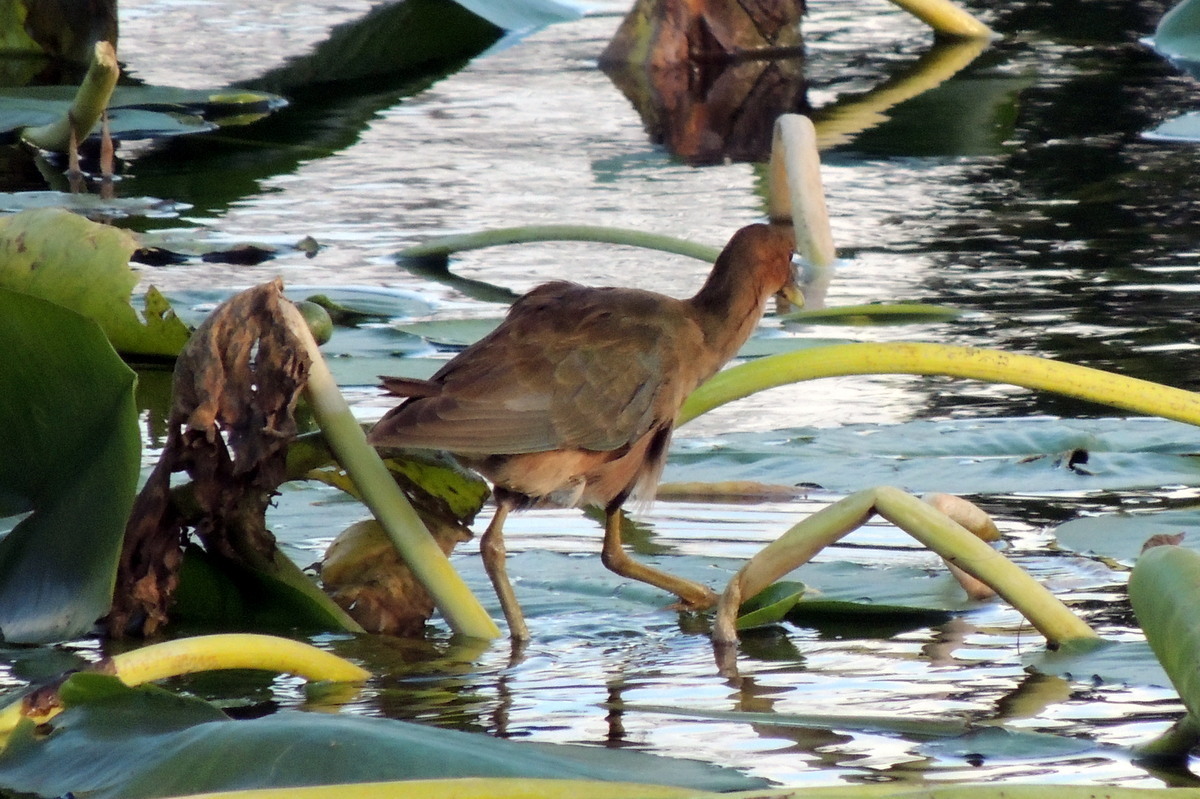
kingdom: Animalia
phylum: Chordata
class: Aves
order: Gruiformes
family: Rallidae
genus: Porphyrio
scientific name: Porphyrio martinica
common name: Purple gallinule
